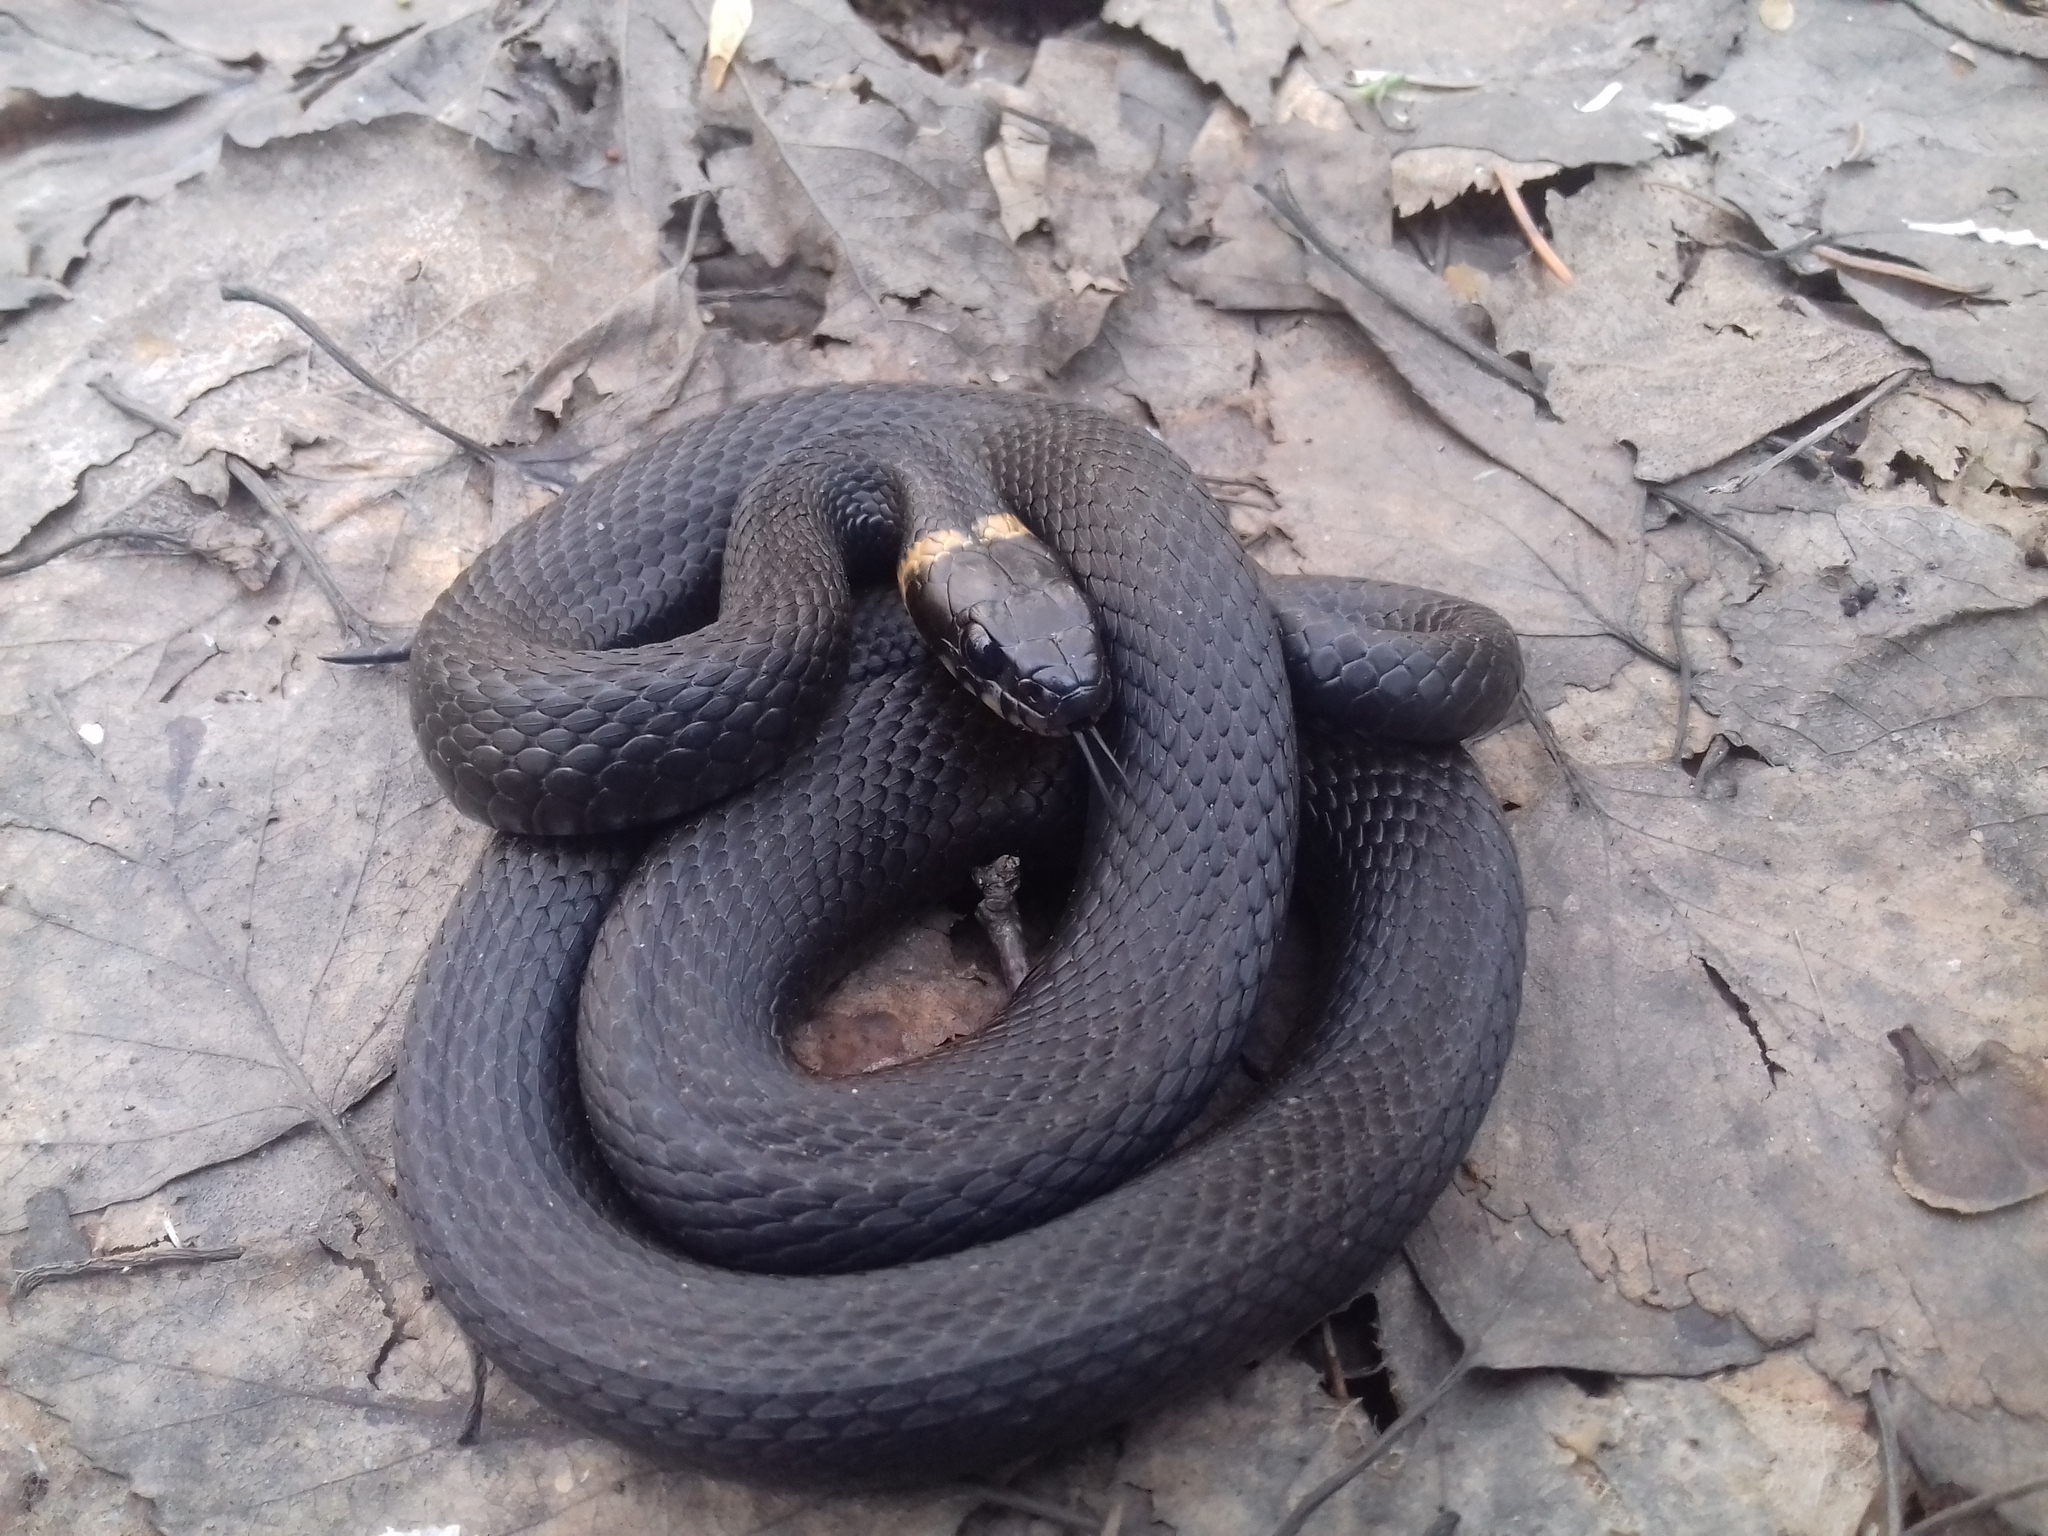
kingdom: Animalia
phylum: Chordata
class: Squamata
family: Colubridae
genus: Natrix
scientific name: Natrix natrix
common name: Grass snake
